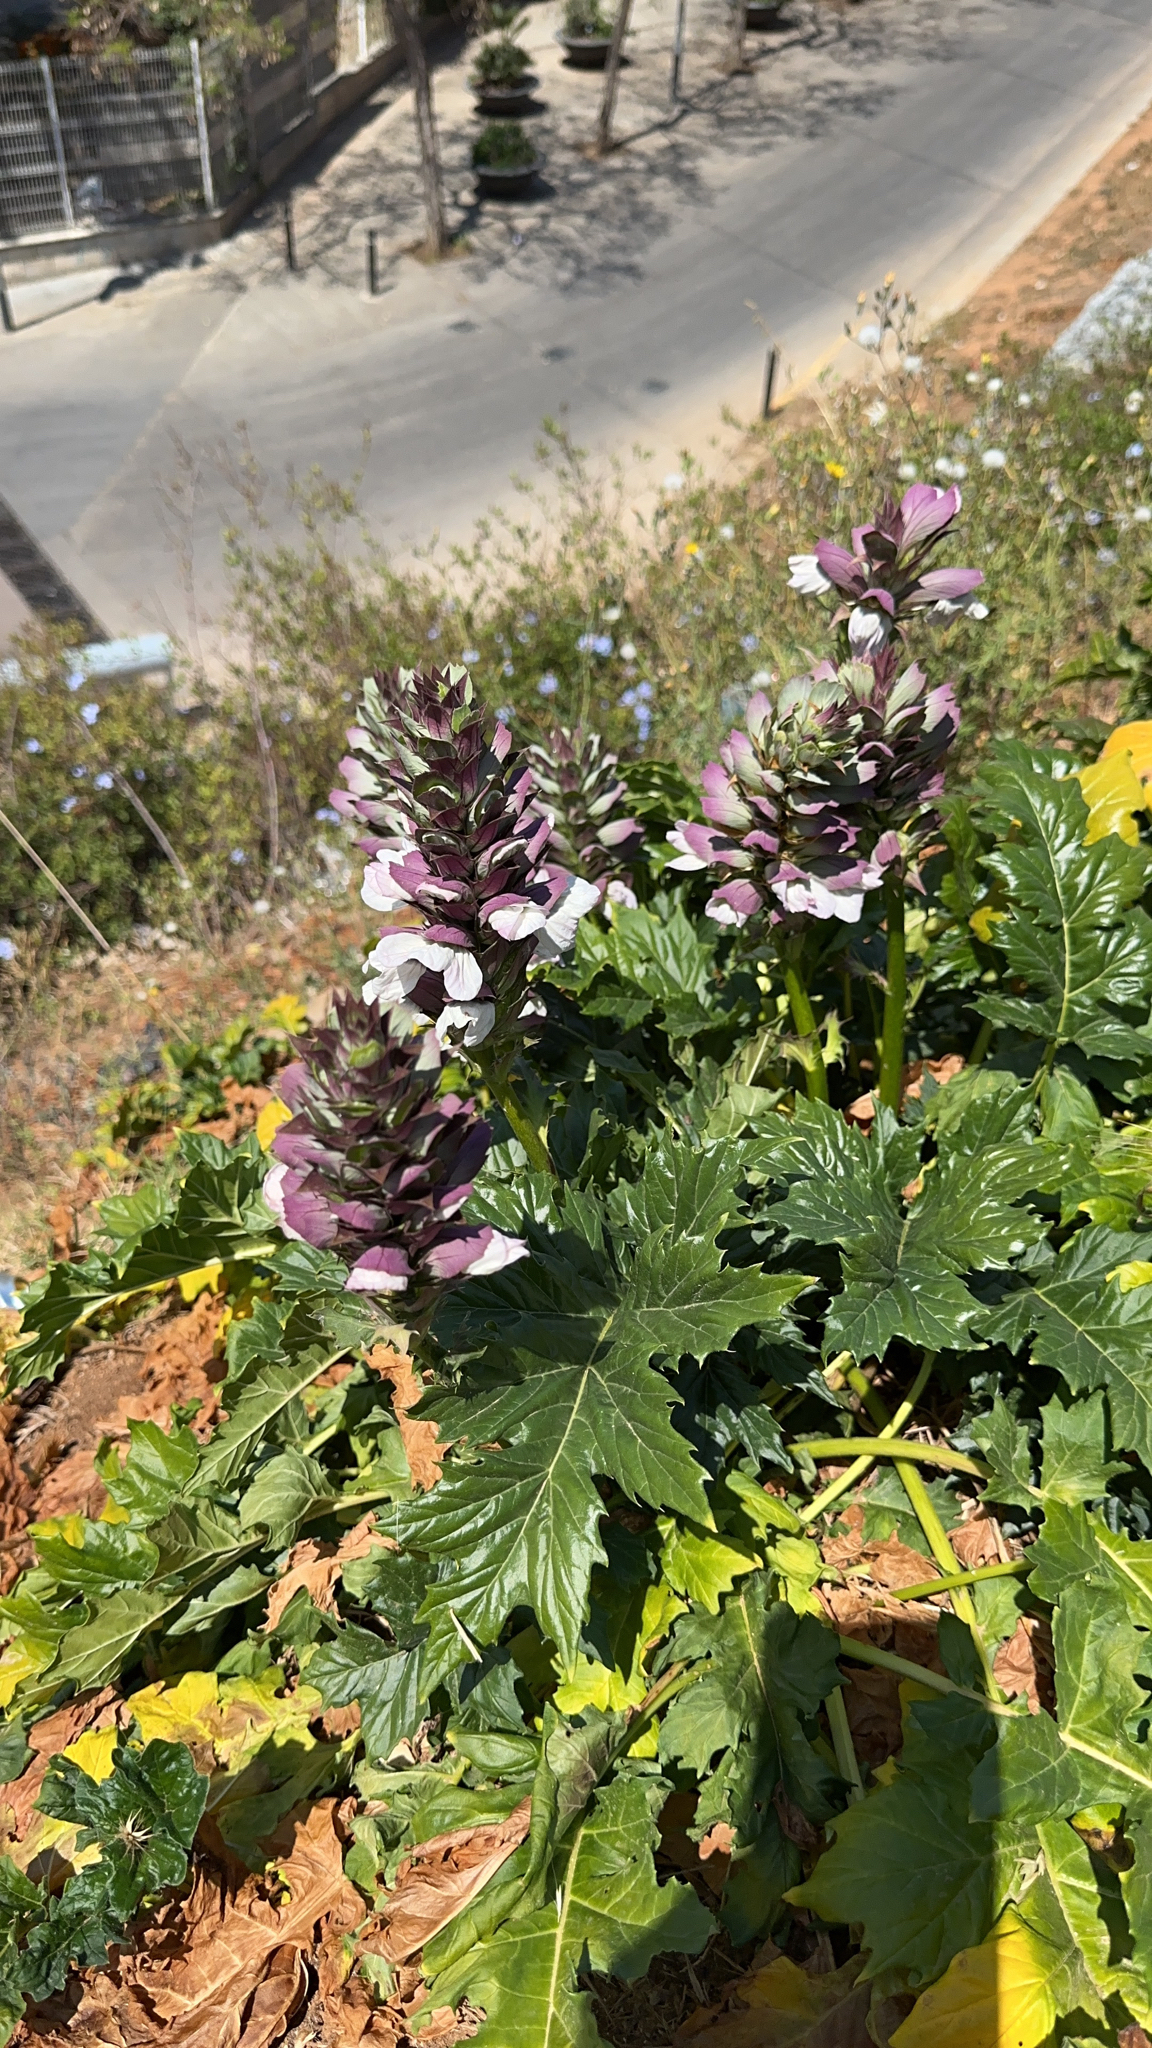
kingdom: Plantae
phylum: Tracheophyta
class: Magnoliopsida
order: Lamiales
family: Acanthaceae
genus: Acanthus
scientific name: Acanthus mollis
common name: Bear's-breech
